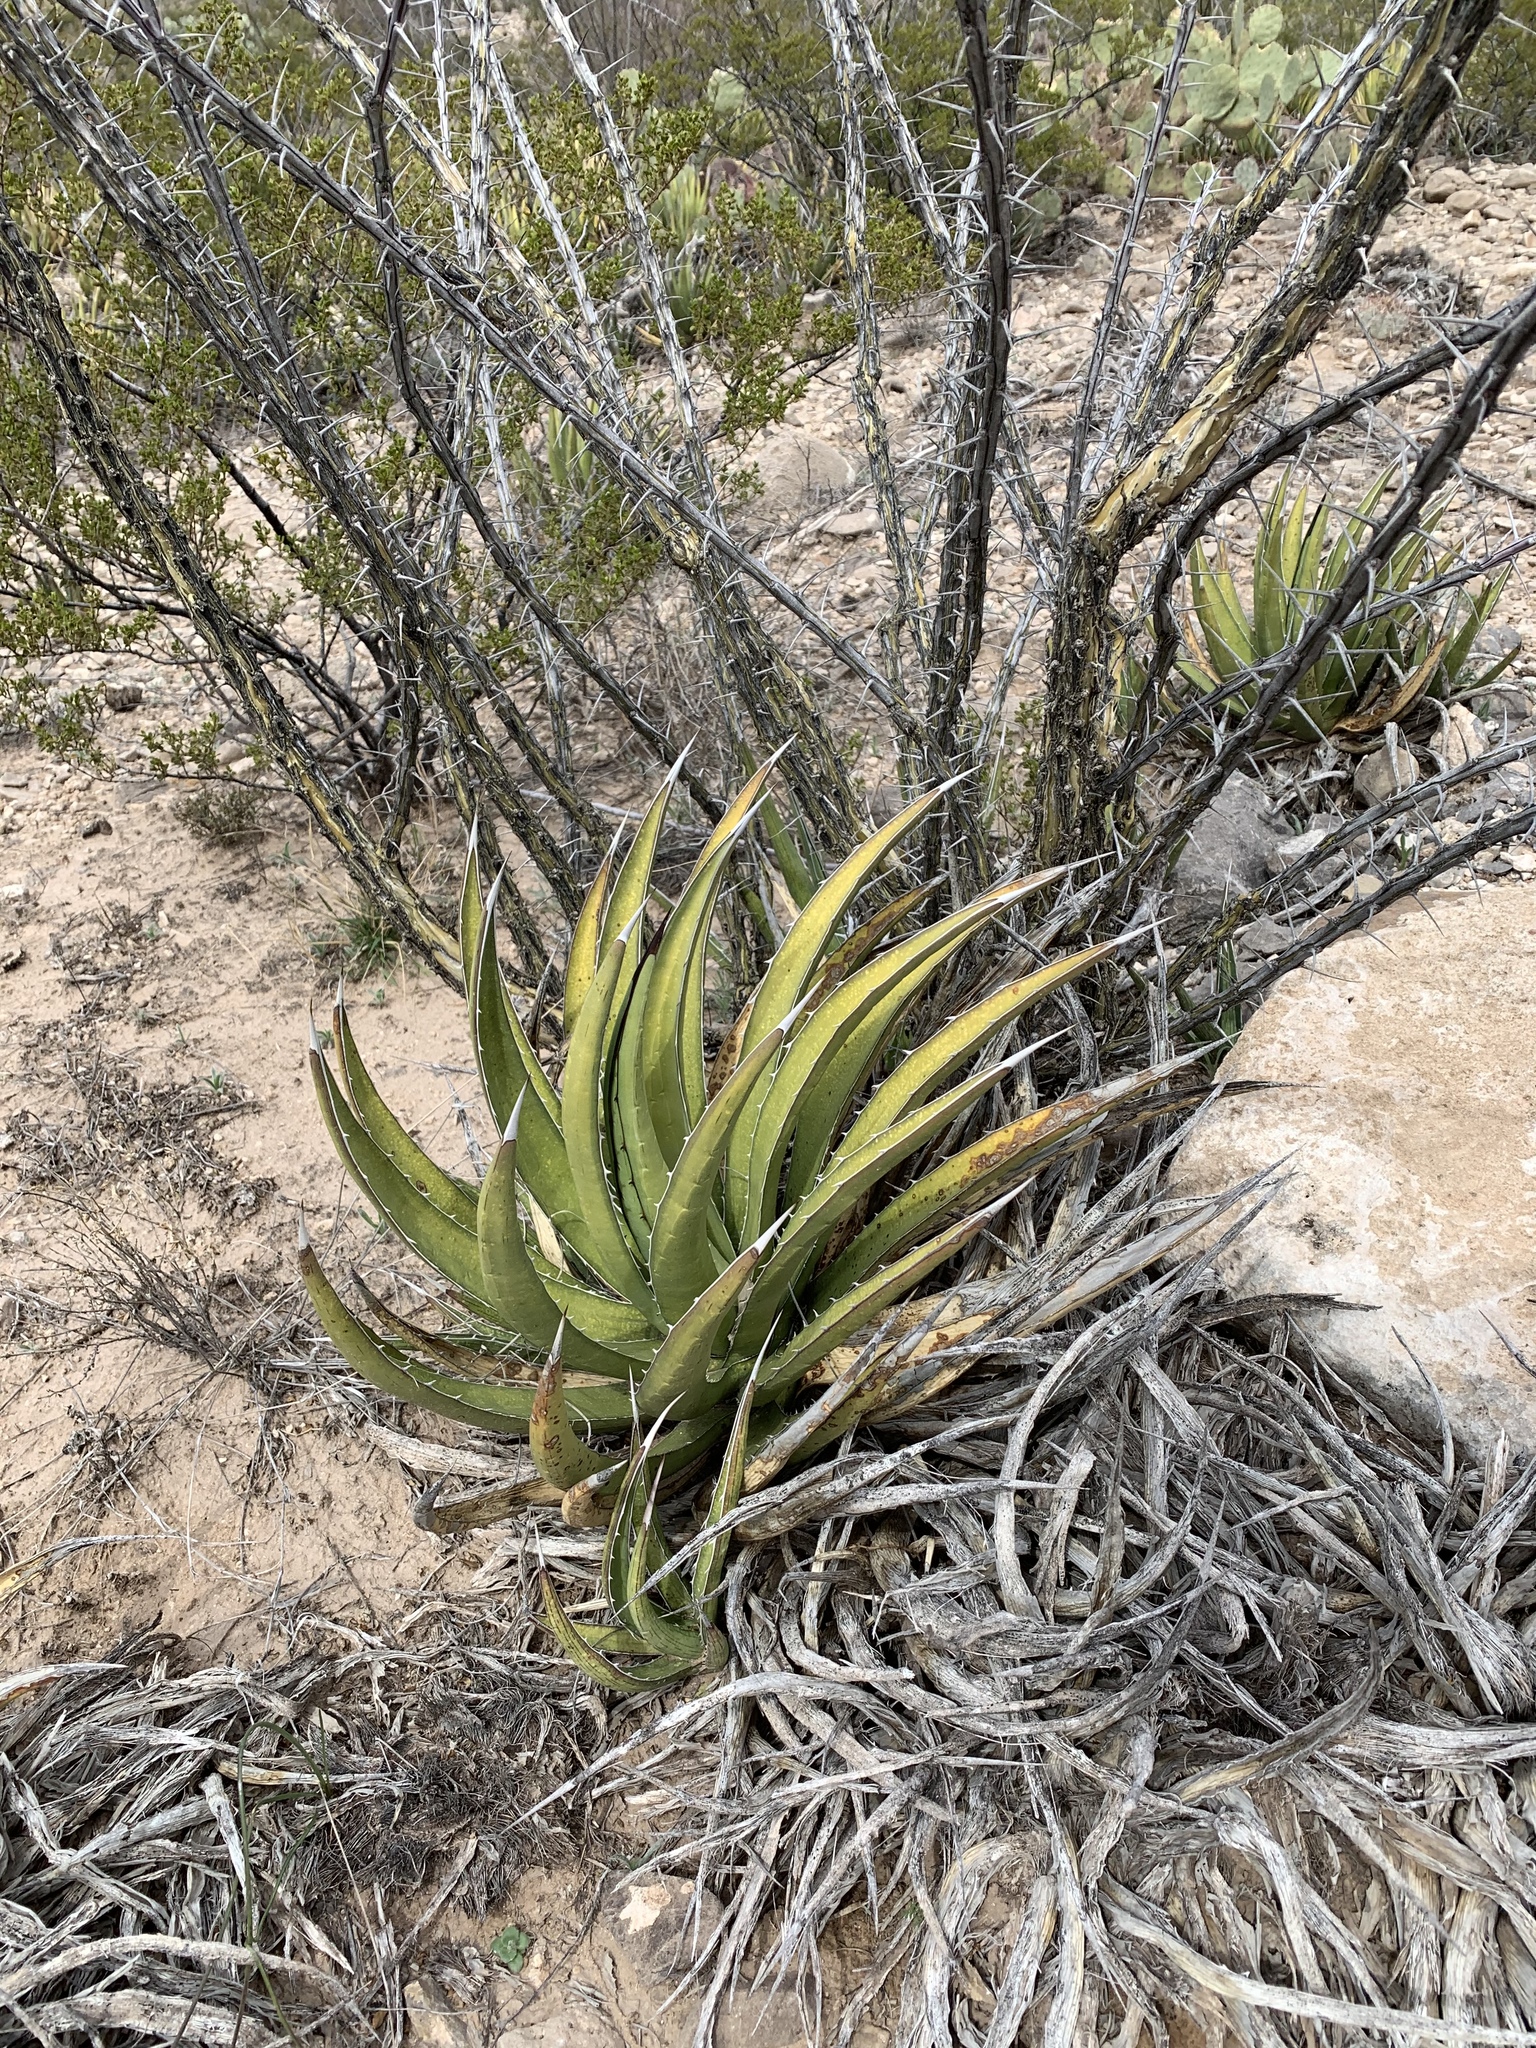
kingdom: Plantae
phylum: Tracheophyta
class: Liliopsida
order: Asparagales
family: Asparagaceae
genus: Agave
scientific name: Agave lechuguilla
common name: Lecheguilla agave
